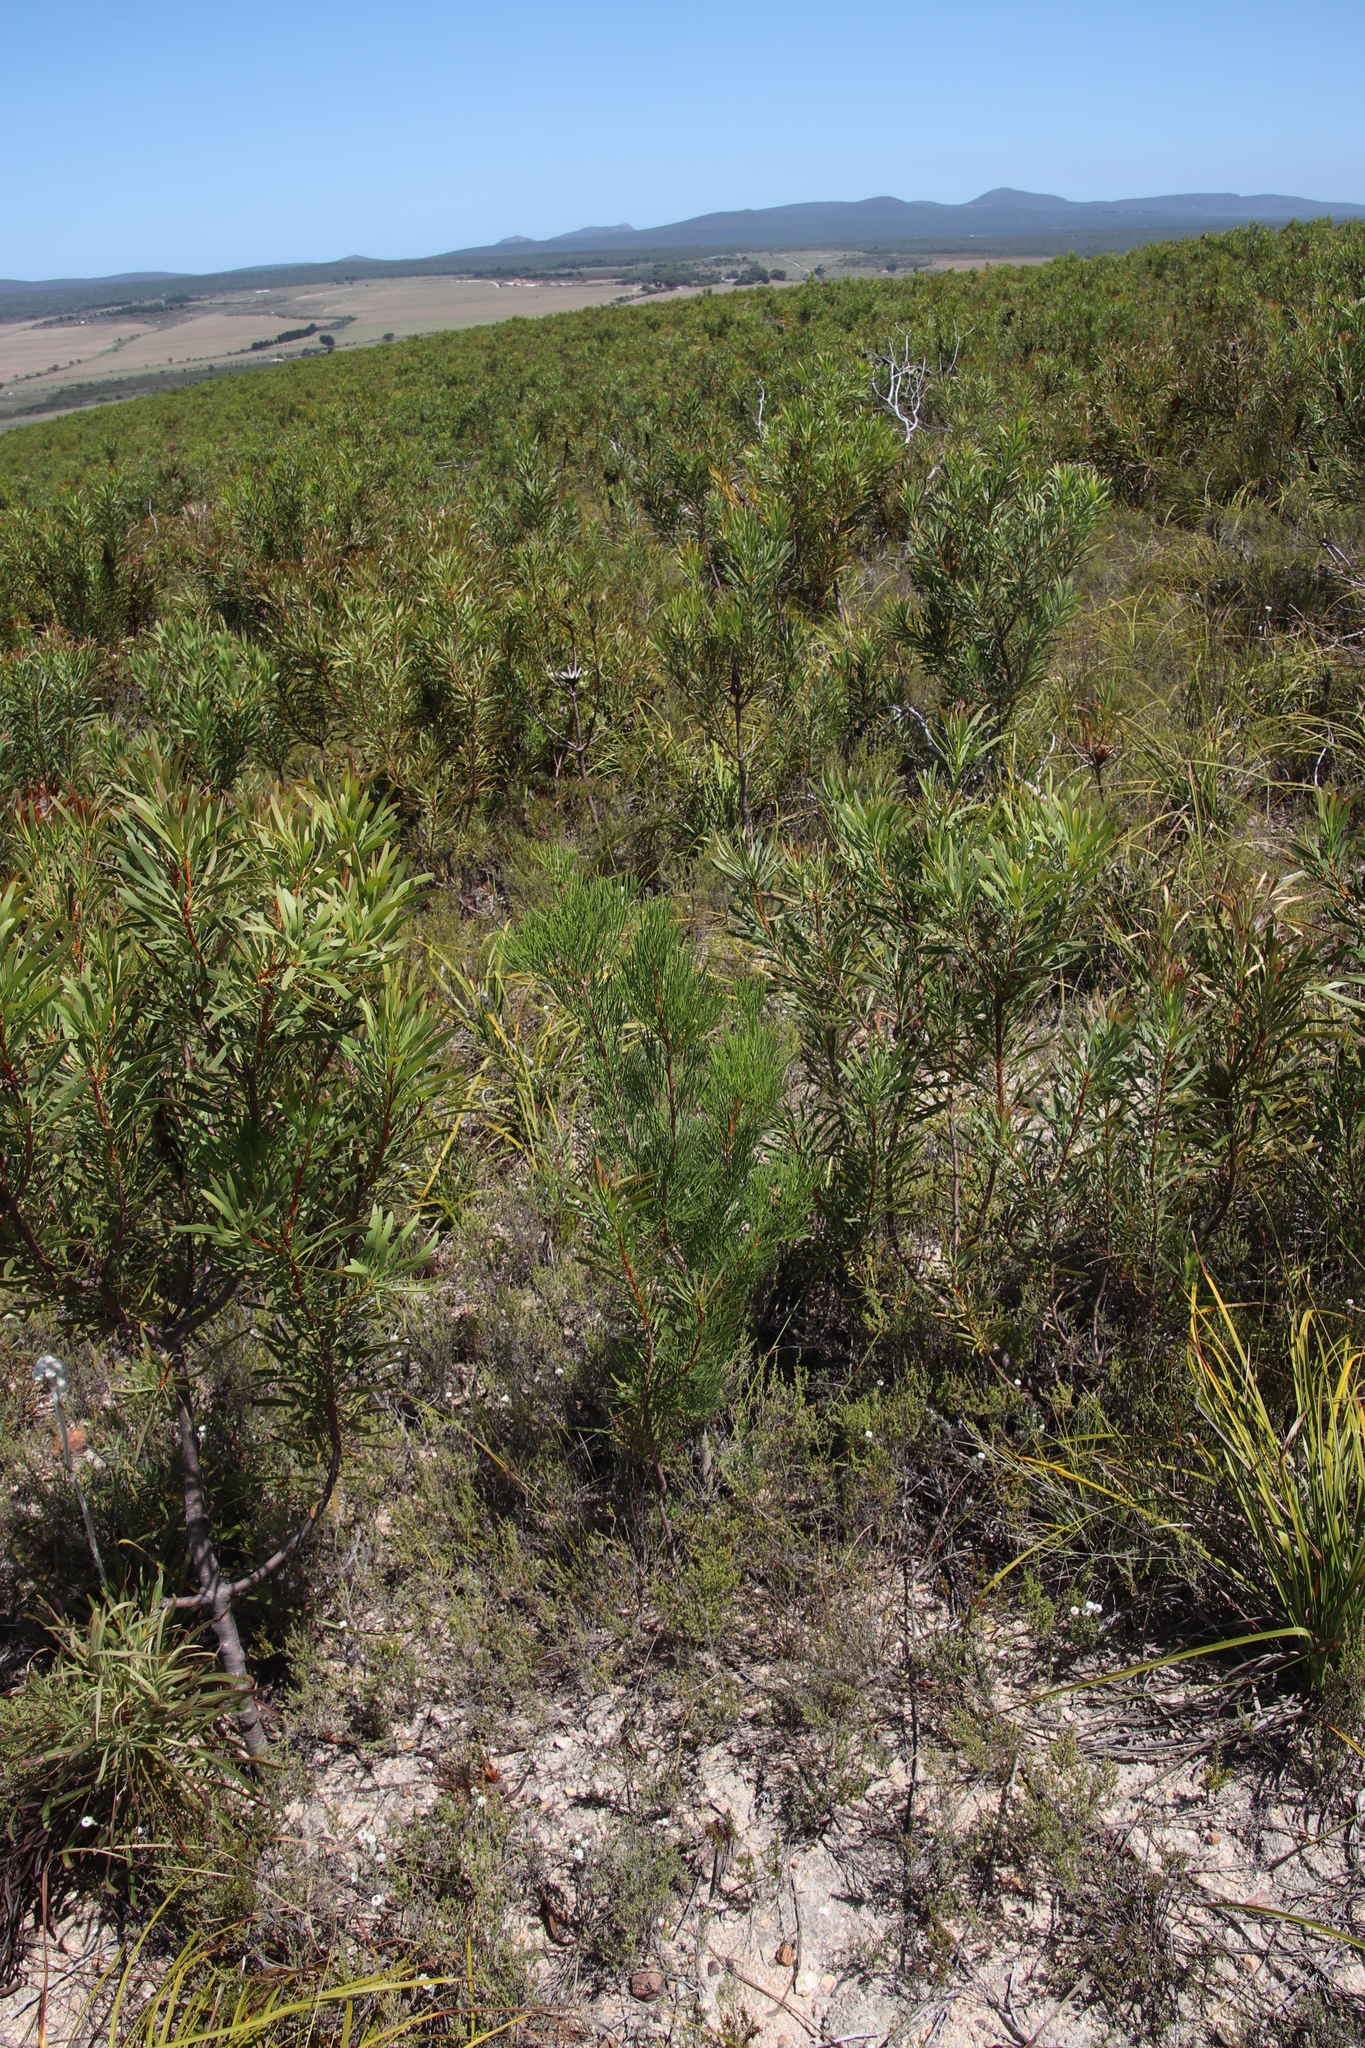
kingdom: Plantae
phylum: Tracheophyta
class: Magnoliopsida
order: Proteales
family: Proteaceae
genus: Hakea
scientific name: Hakea drupacea
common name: Sweet hakea
